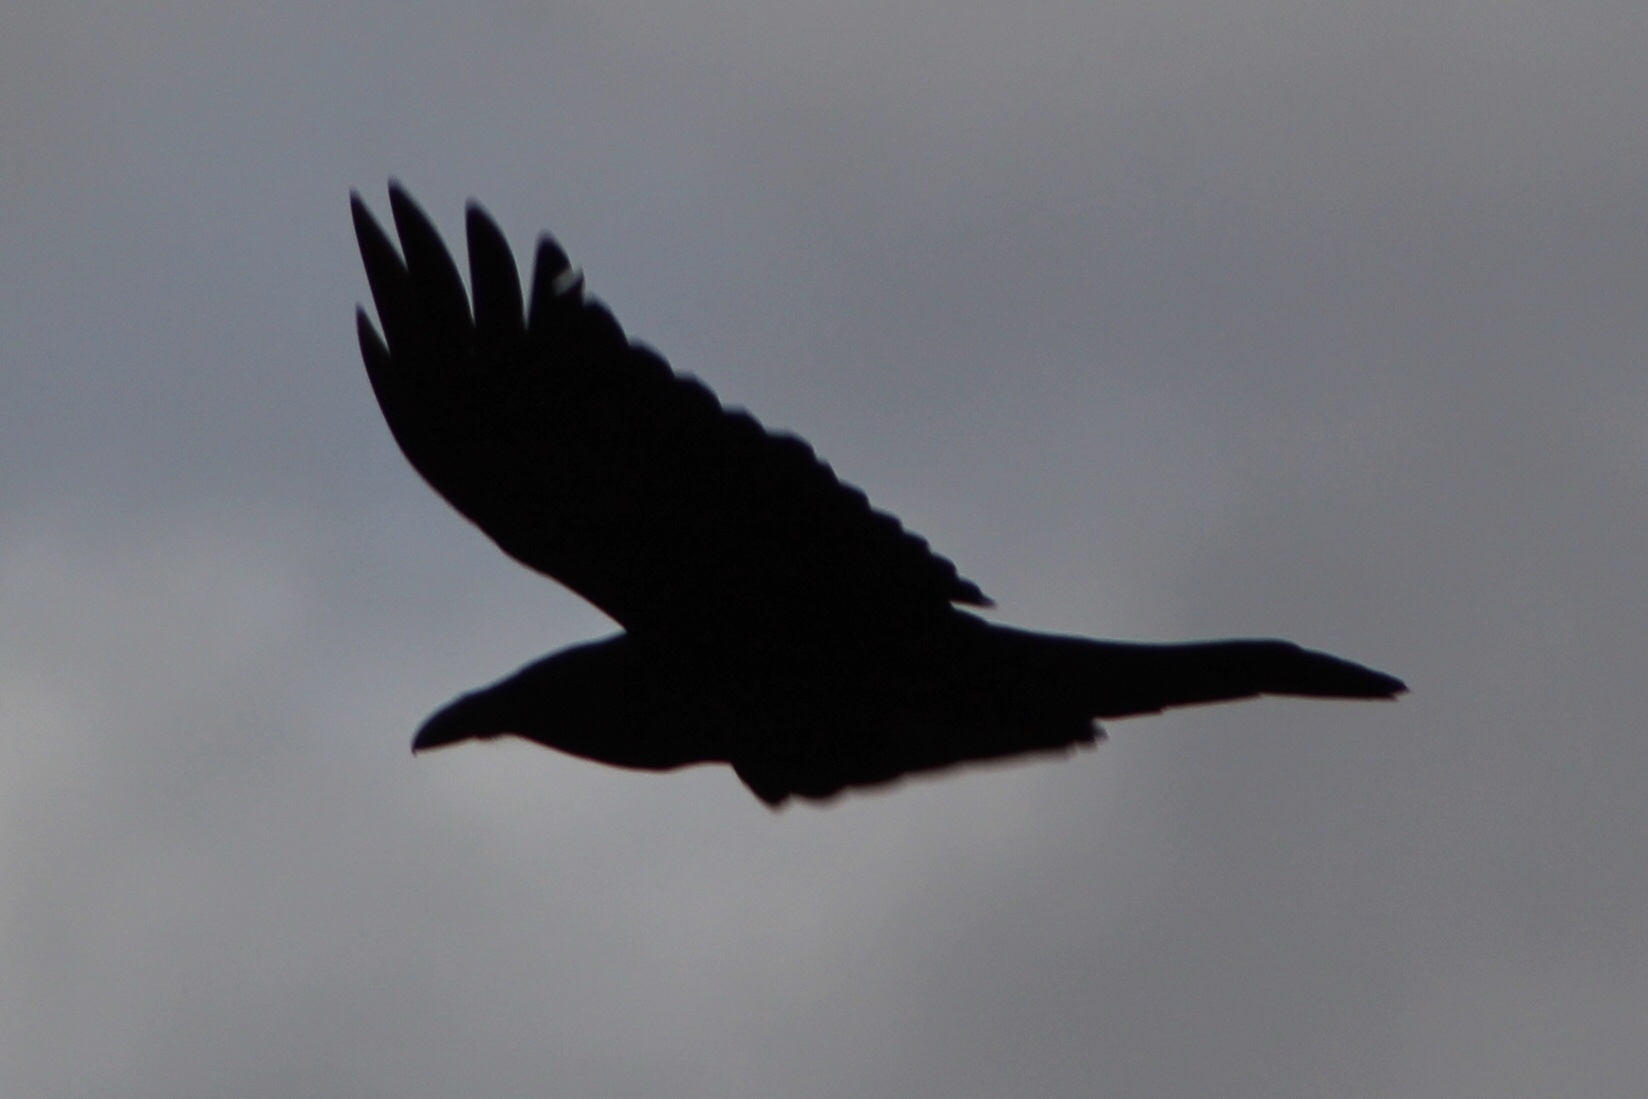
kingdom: Animalia
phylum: Chordata
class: Aves
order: Passeriformes
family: Corvidae
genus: Corvus
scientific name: Corvus corax
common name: Common raven
